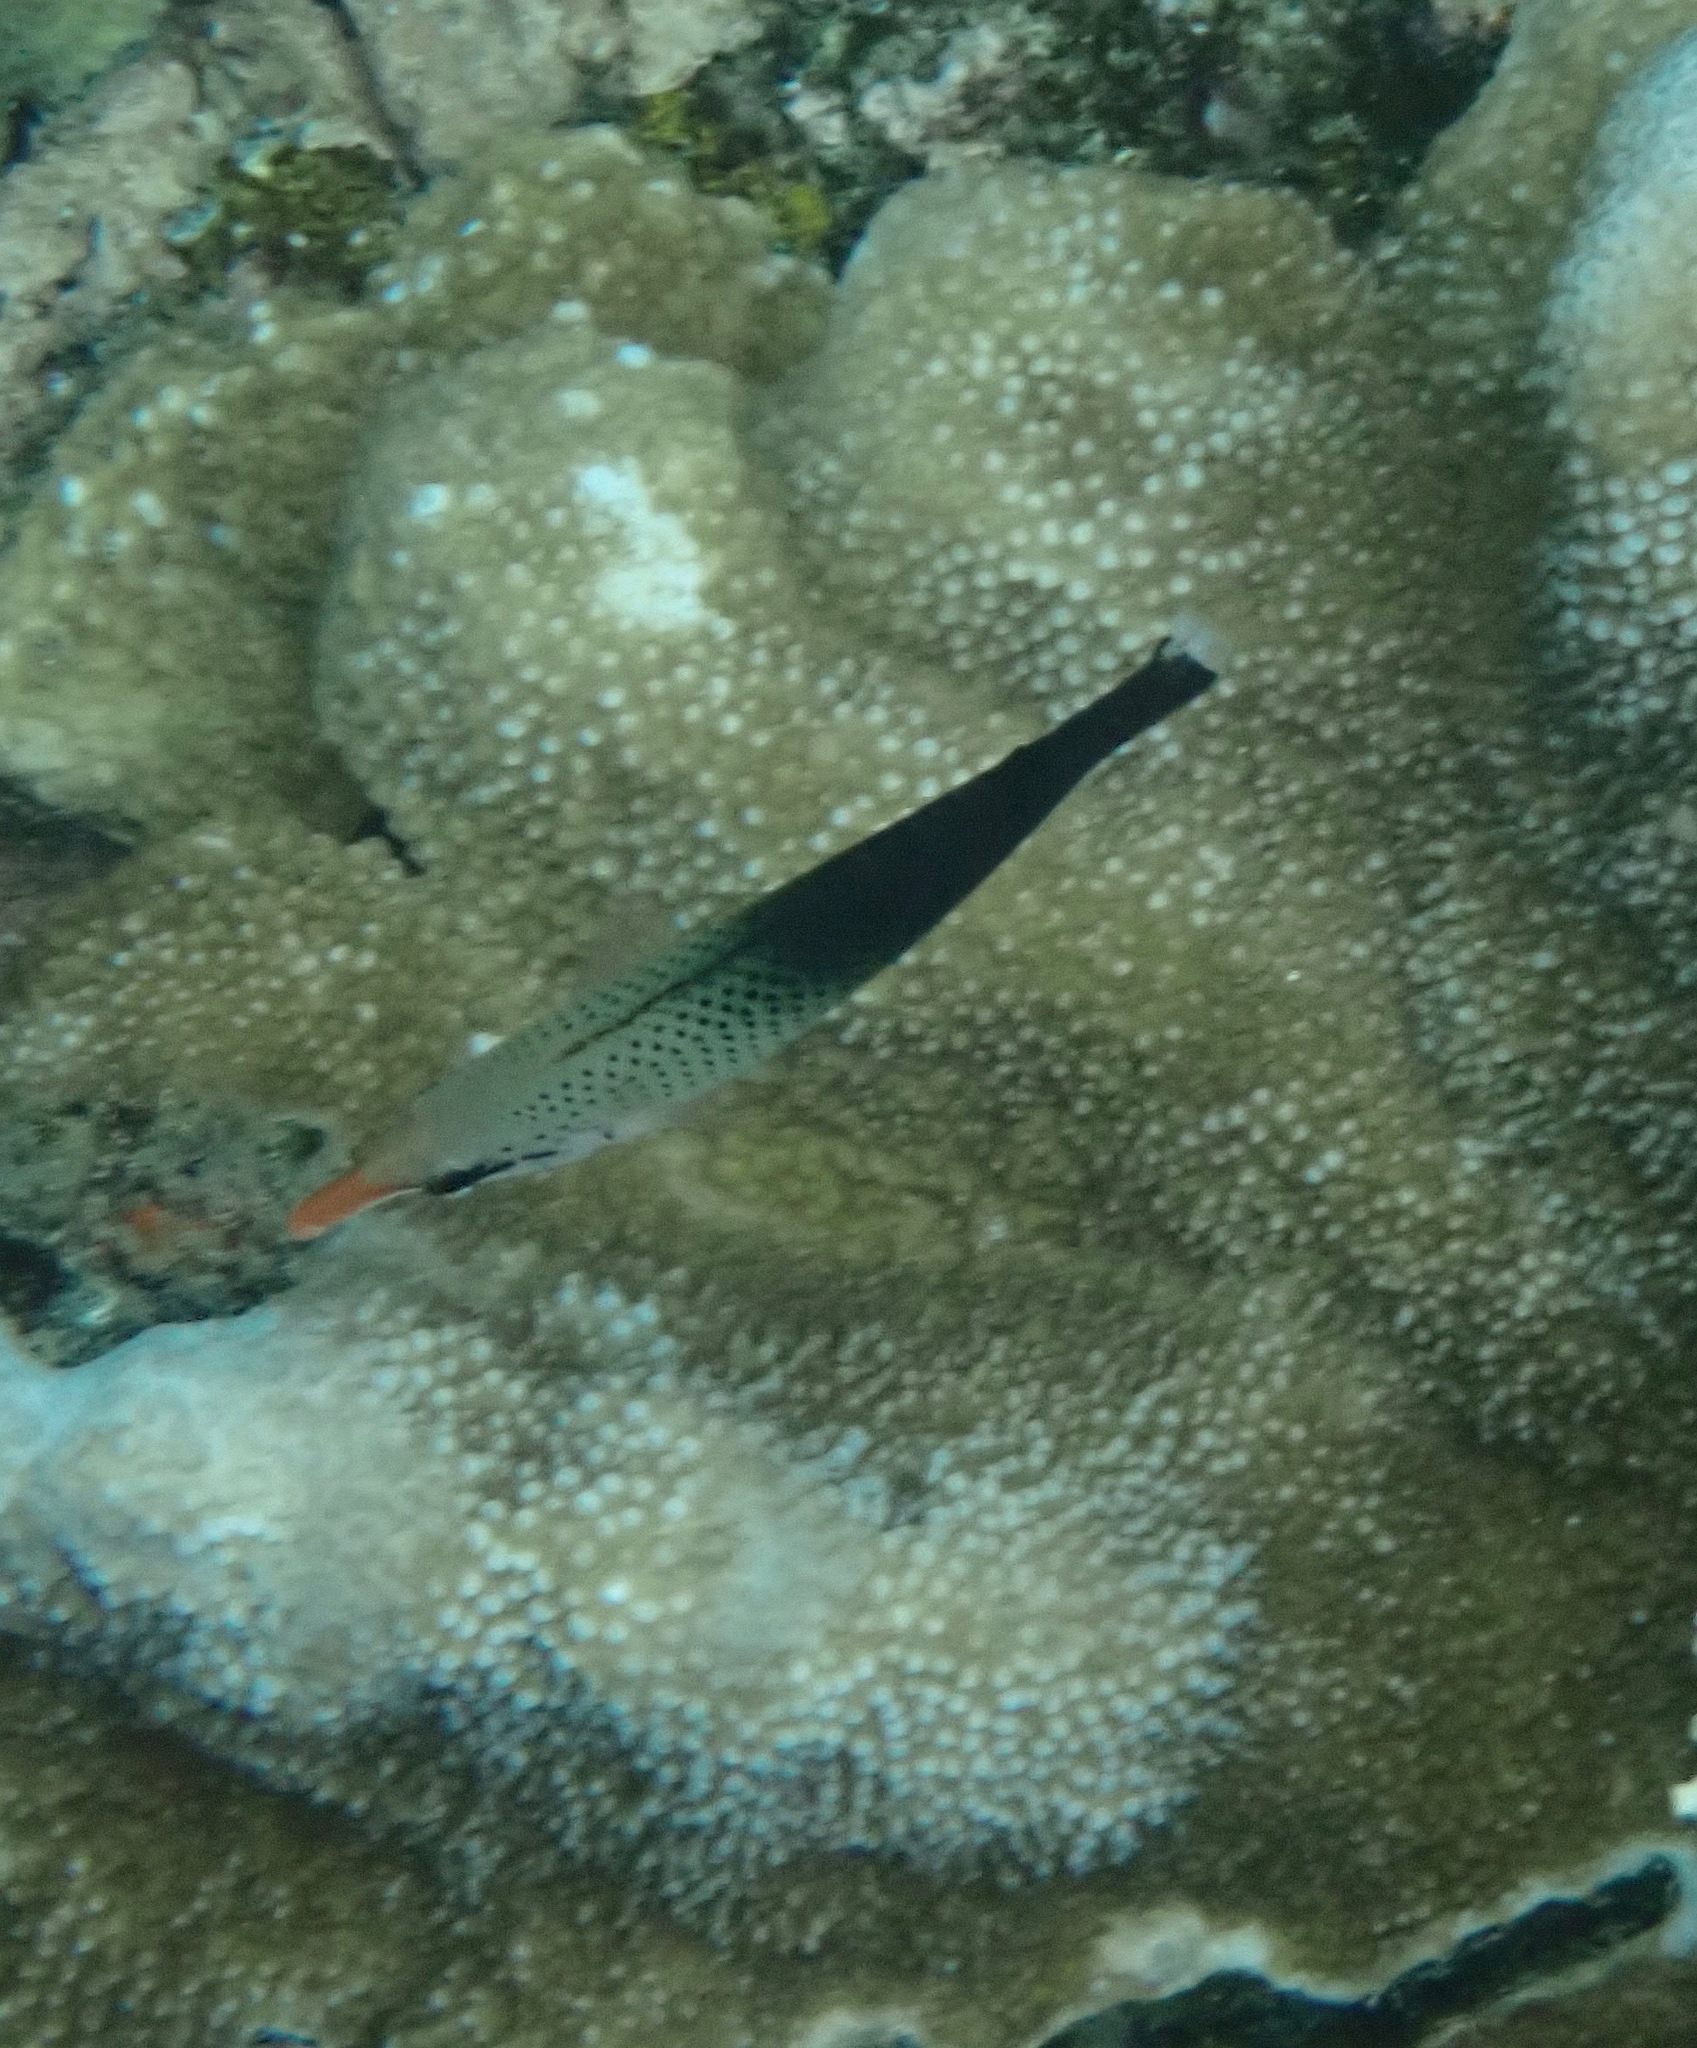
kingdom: Animalia
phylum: Chordata
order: Perciformes
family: Labridae
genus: Gomphosus
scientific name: Gomphosus varius
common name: Bird wrasse
